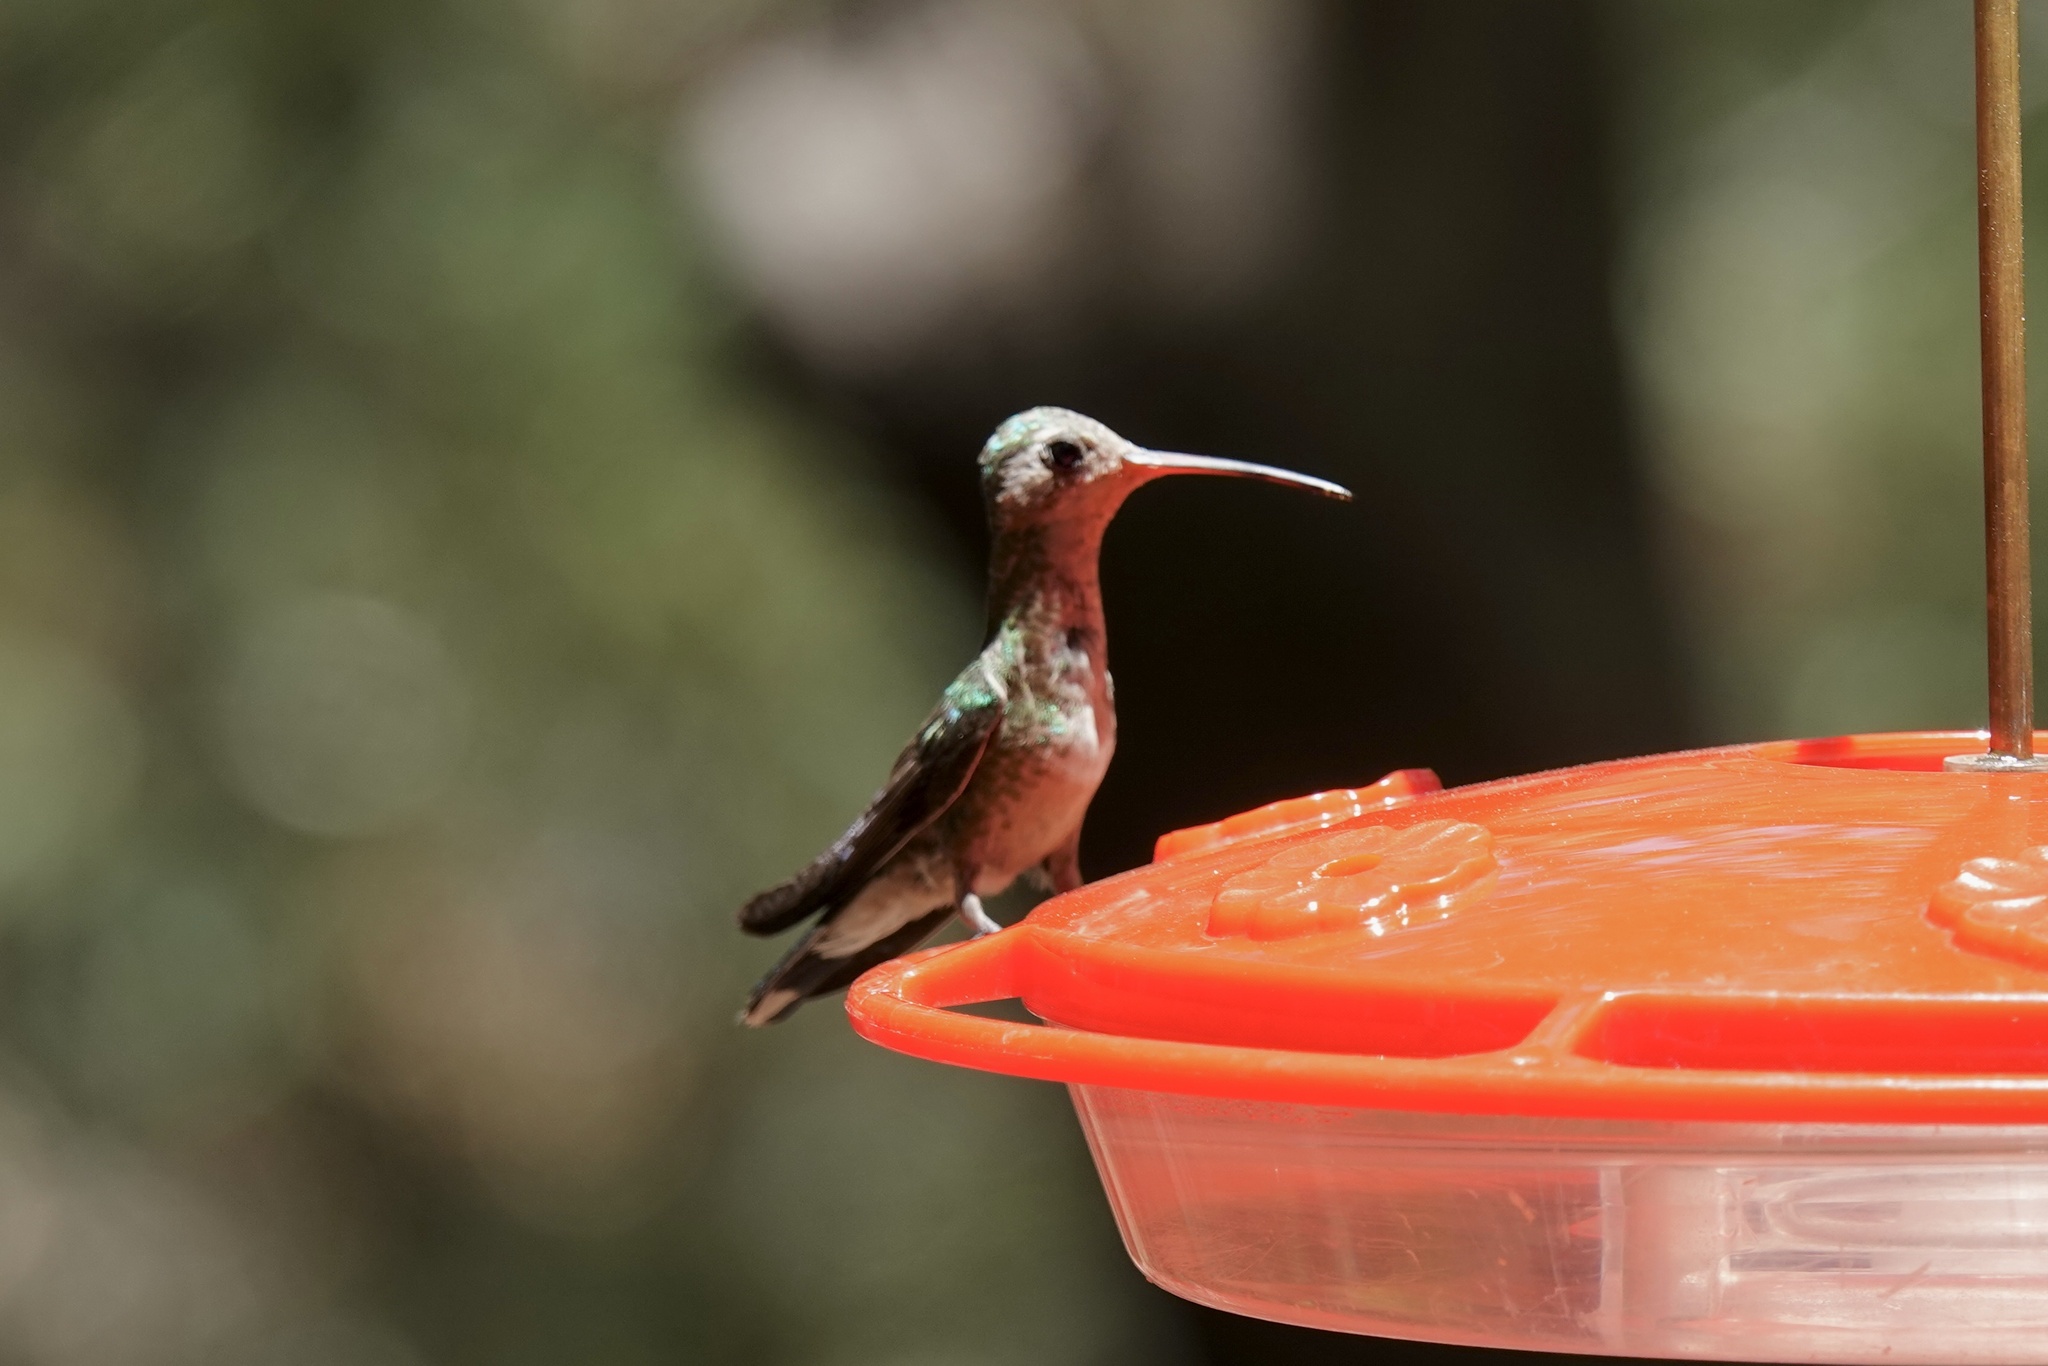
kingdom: Animalia
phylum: Chordata
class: Aves
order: Apodiformes
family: Trochilidae
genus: Cynanthus
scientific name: Cynanthus latirostris
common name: Broad-billed hummingbird
